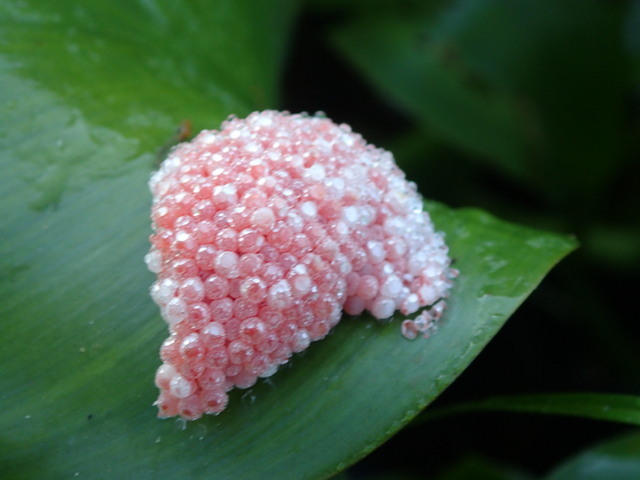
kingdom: Animalia
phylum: Mollusca
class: Gastropoda
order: Architaenioglossa
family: Ampullariidae
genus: Pomacea
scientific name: Pomacea maculata
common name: Giant applesnail
